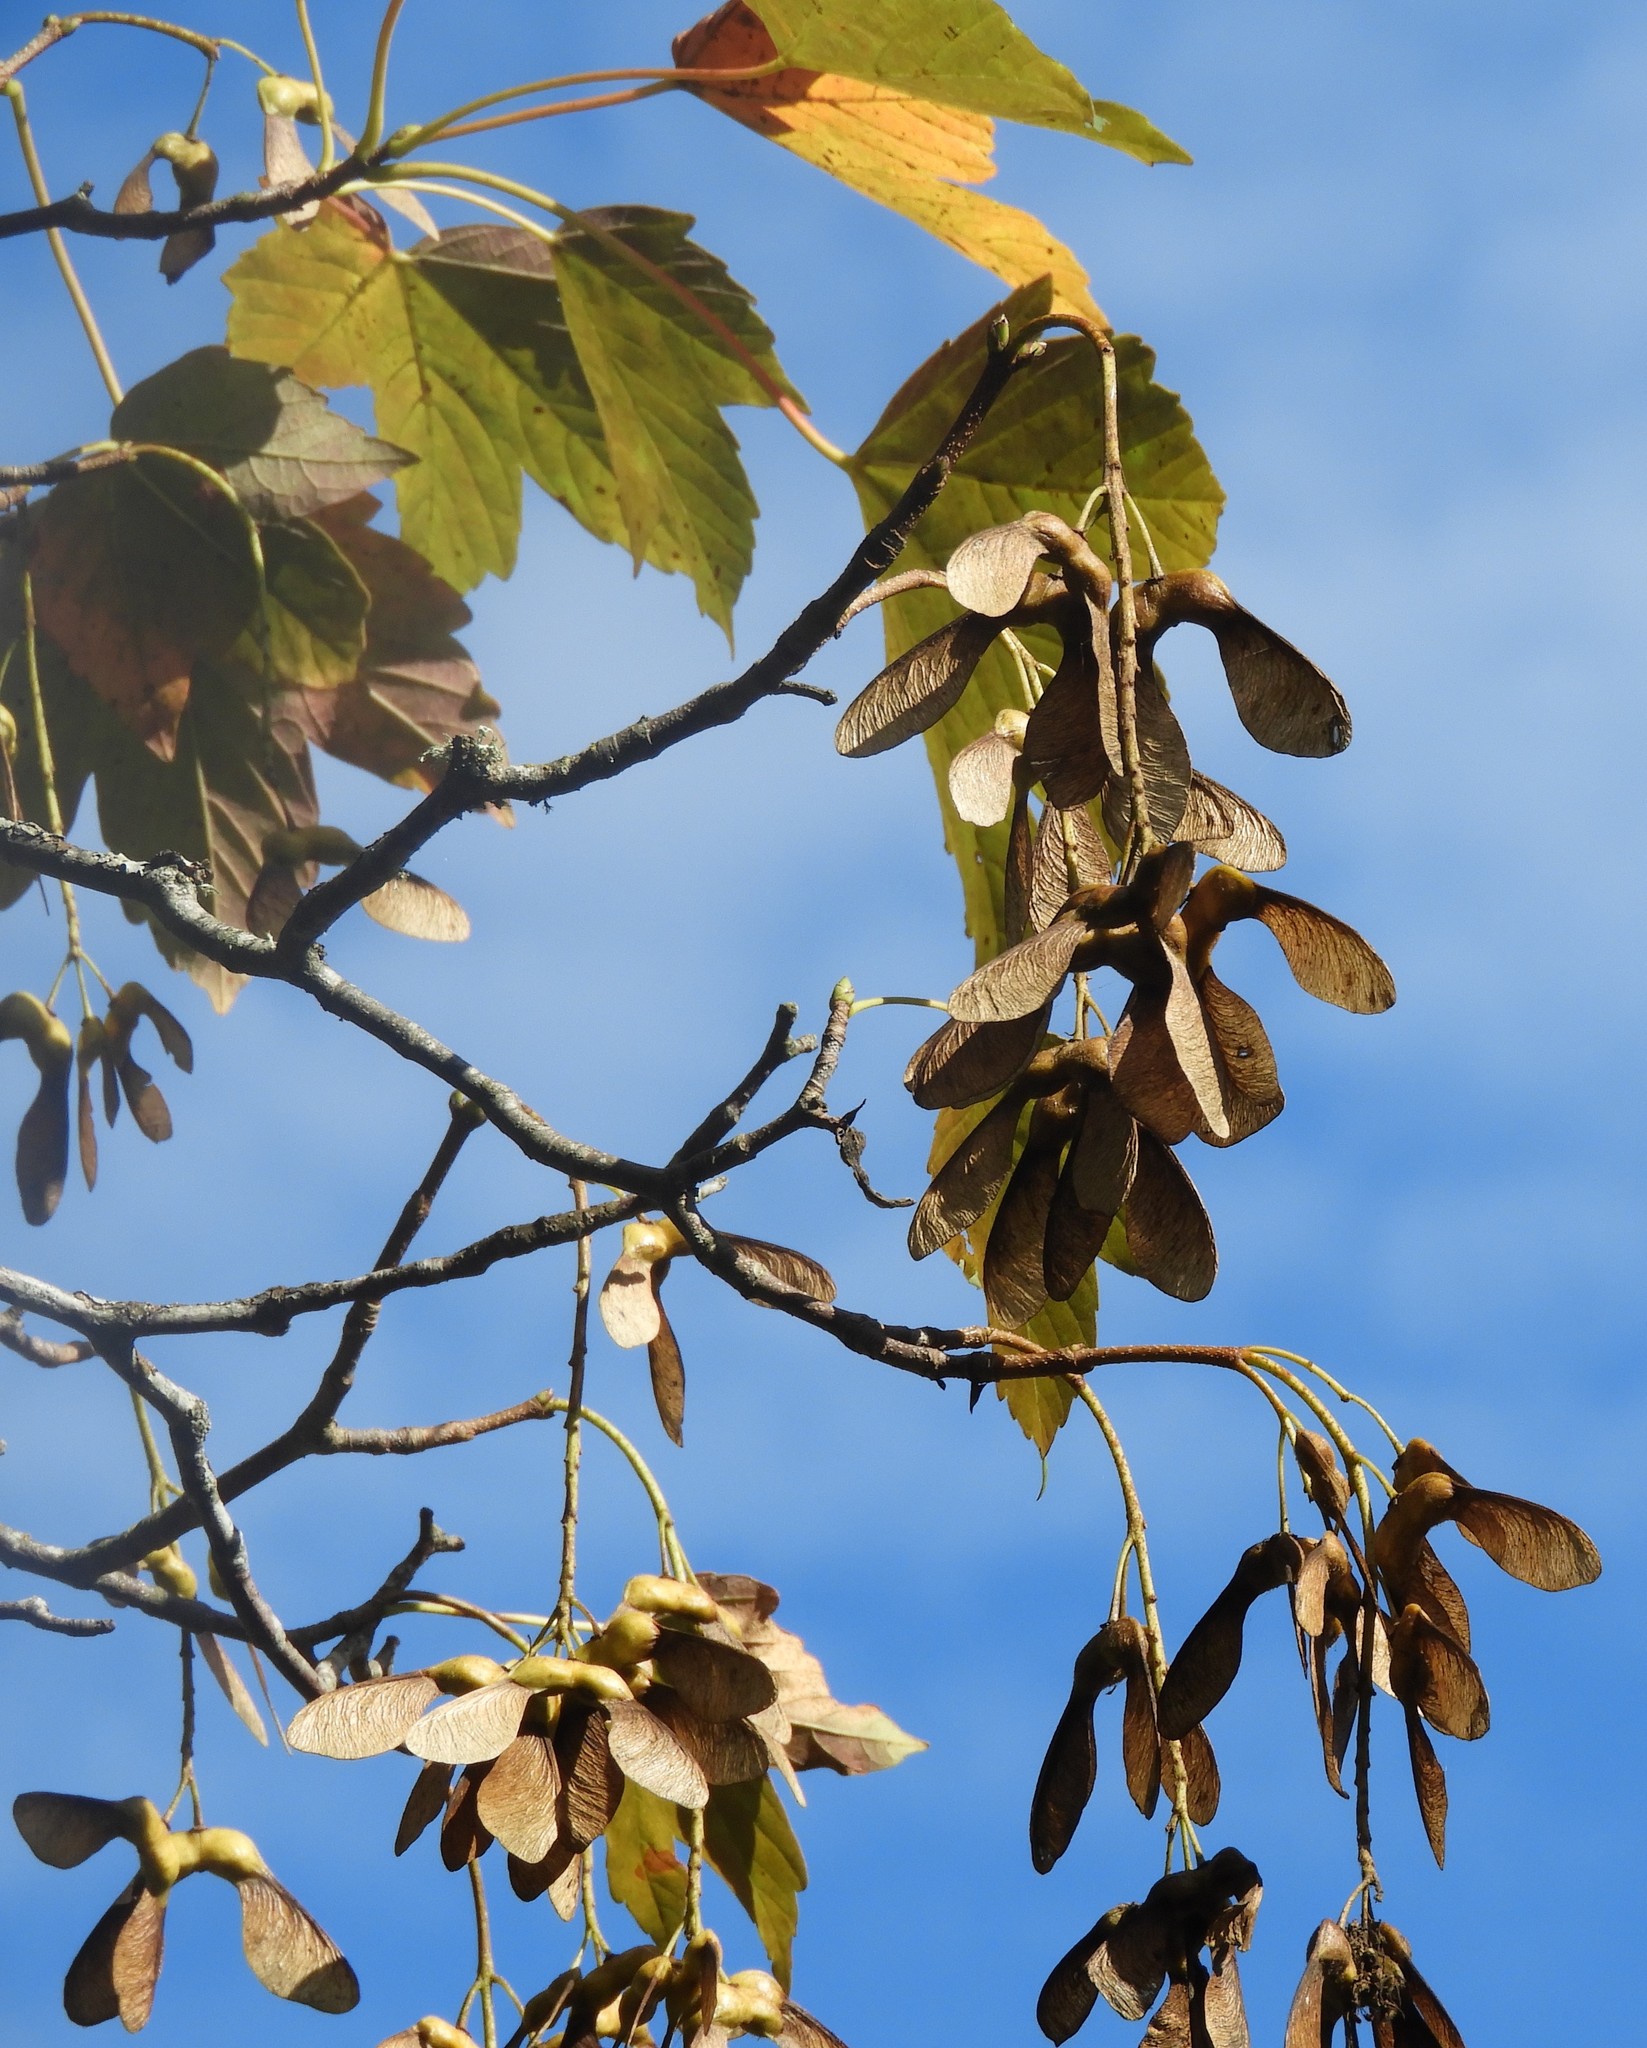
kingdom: Plantae
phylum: Tracheophyta
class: Magnoliopsida
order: Sapindales
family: Sapindaceae
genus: Acer
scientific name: Acer pseudoplatanus
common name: Sycamore
